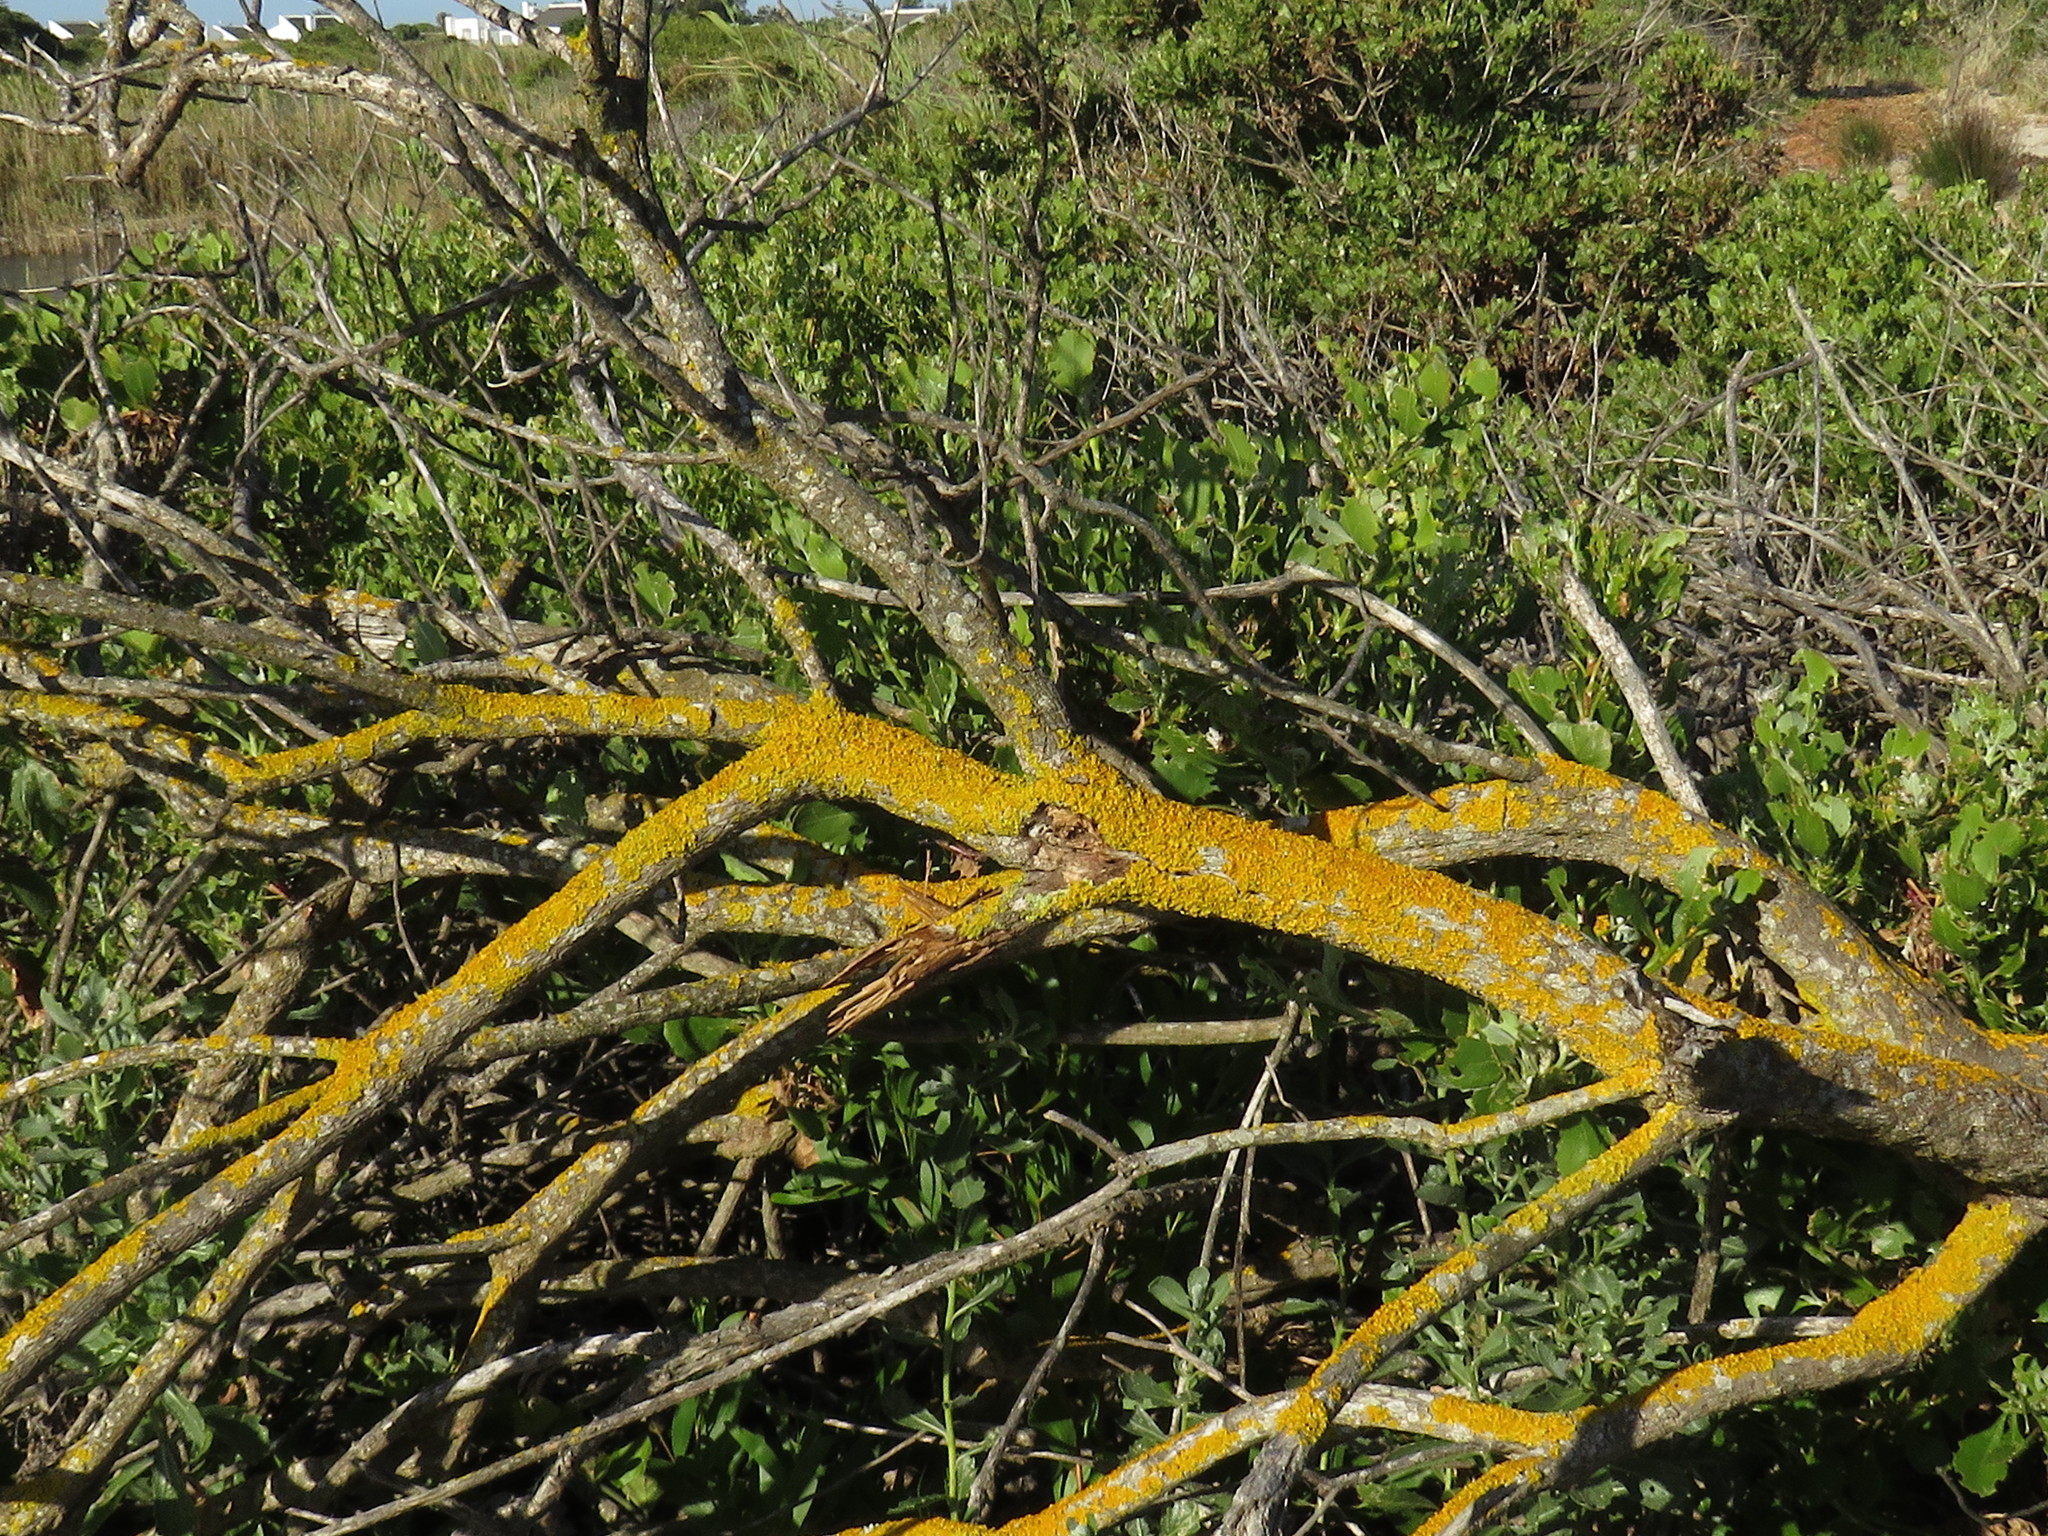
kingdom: Fungi
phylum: Ascomycota
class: Lecanoromycetes
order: Teloschistales
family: Teloschistaceae
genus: Xanthoria
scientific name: Xanthoria parietina
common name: Common orange lichen
